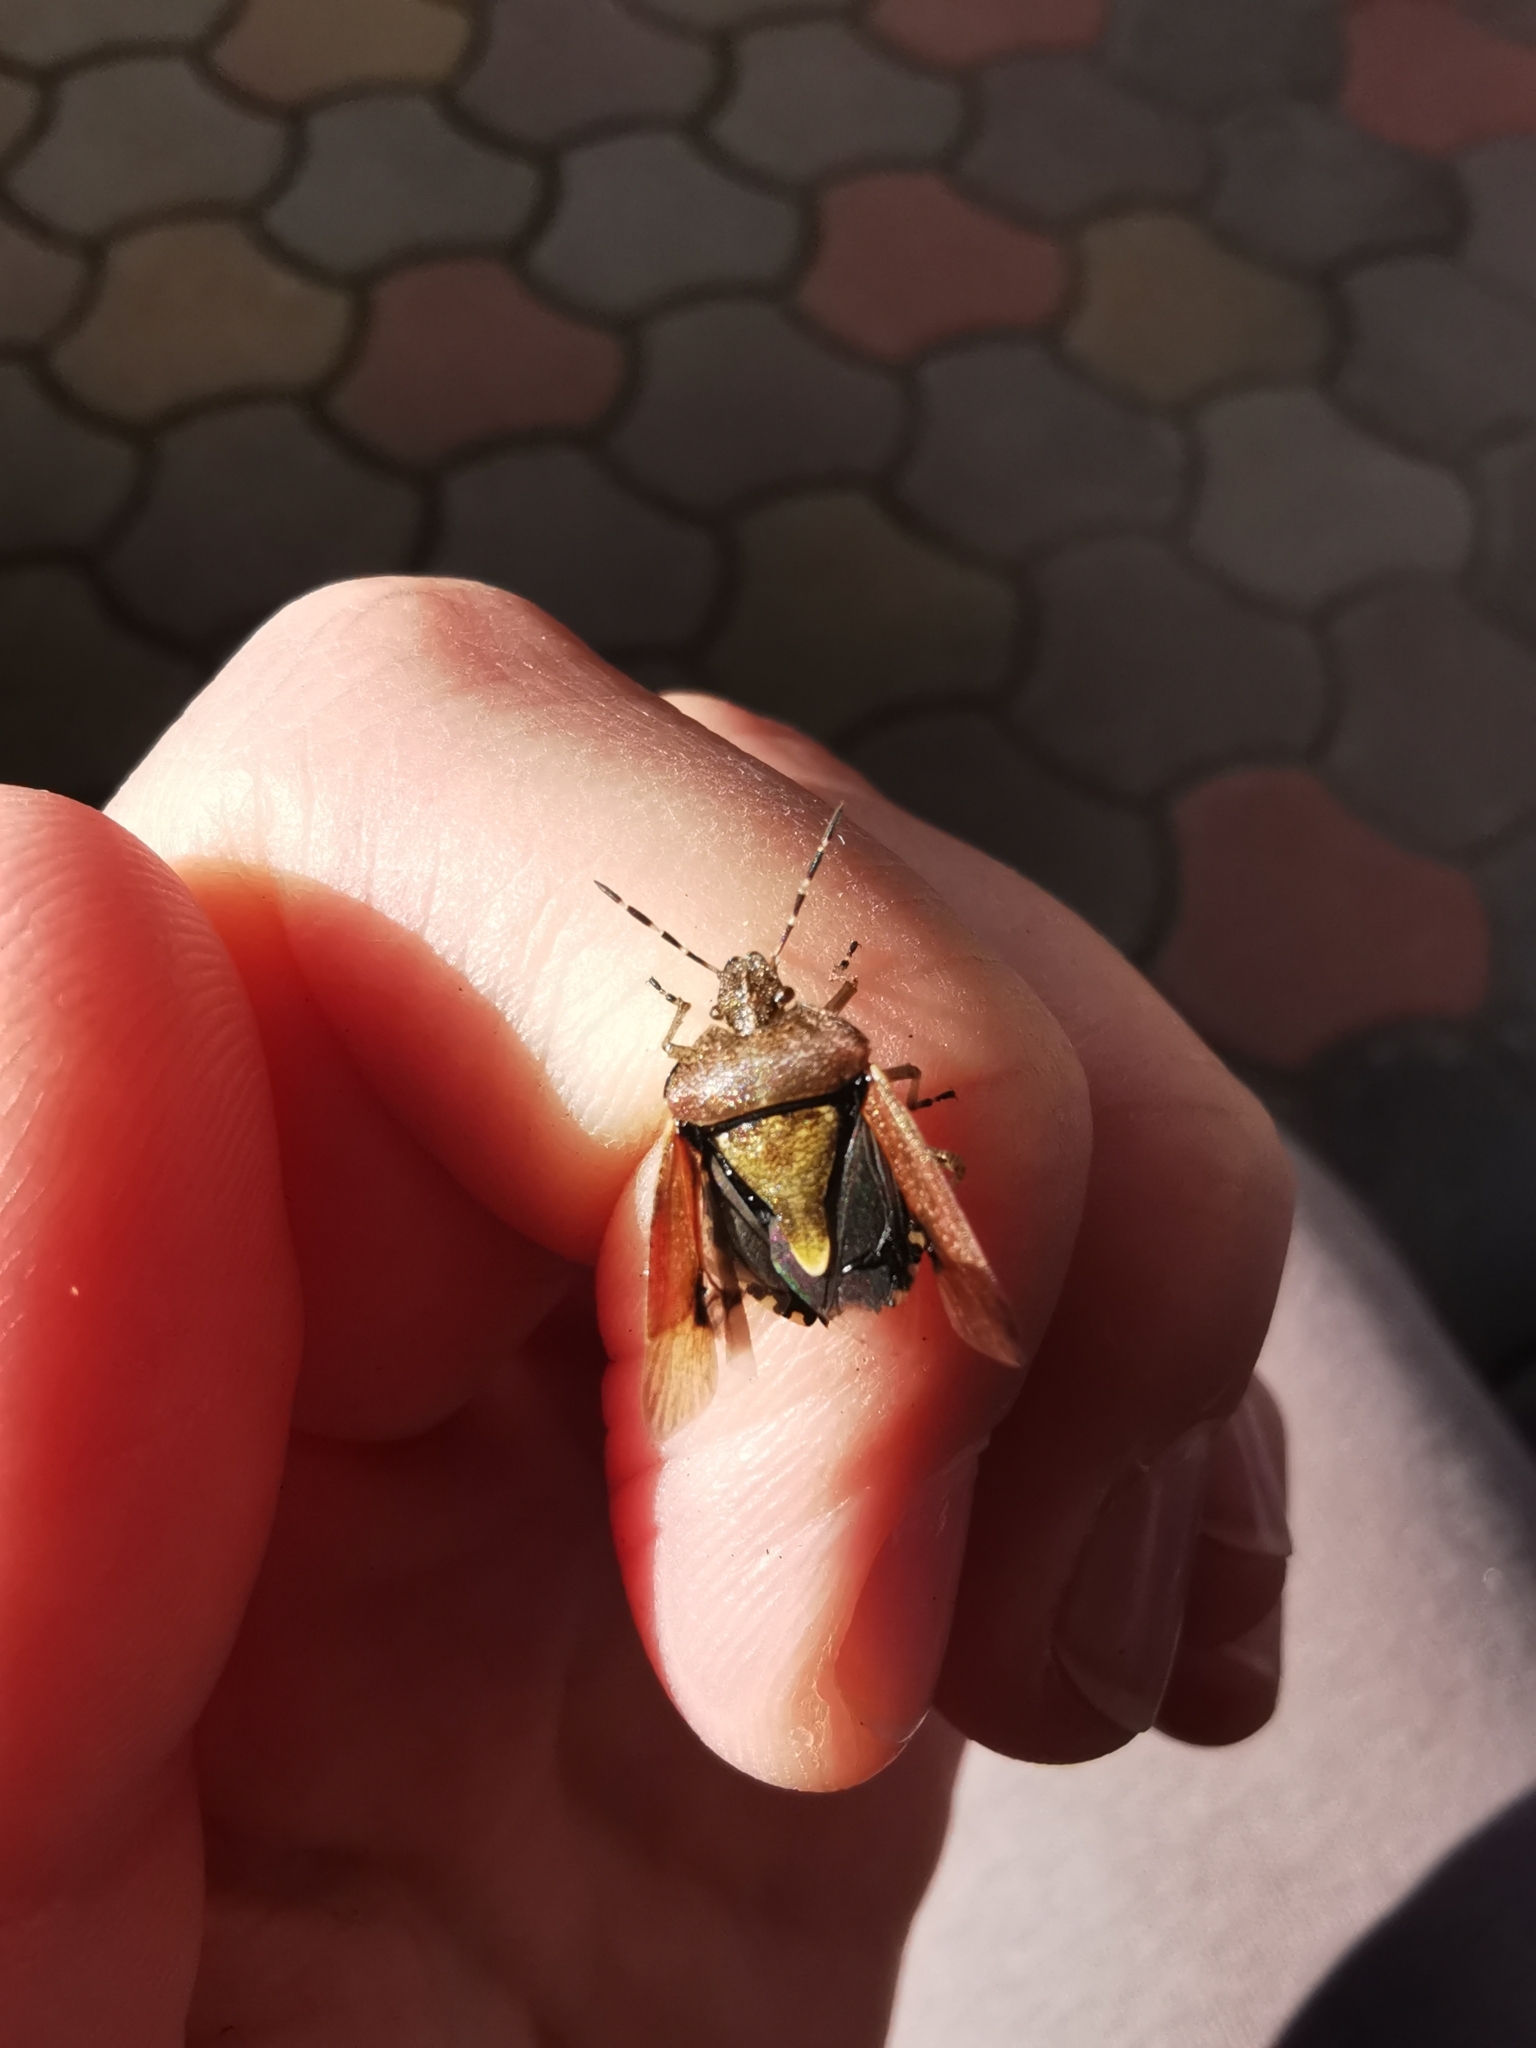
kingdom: Animalia
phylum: Arthropoda
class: Insecta
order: Hemiptera
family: Pentatomidae
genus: Dolycoris
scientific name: Dolycoris baccarum
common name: Sloe bug
